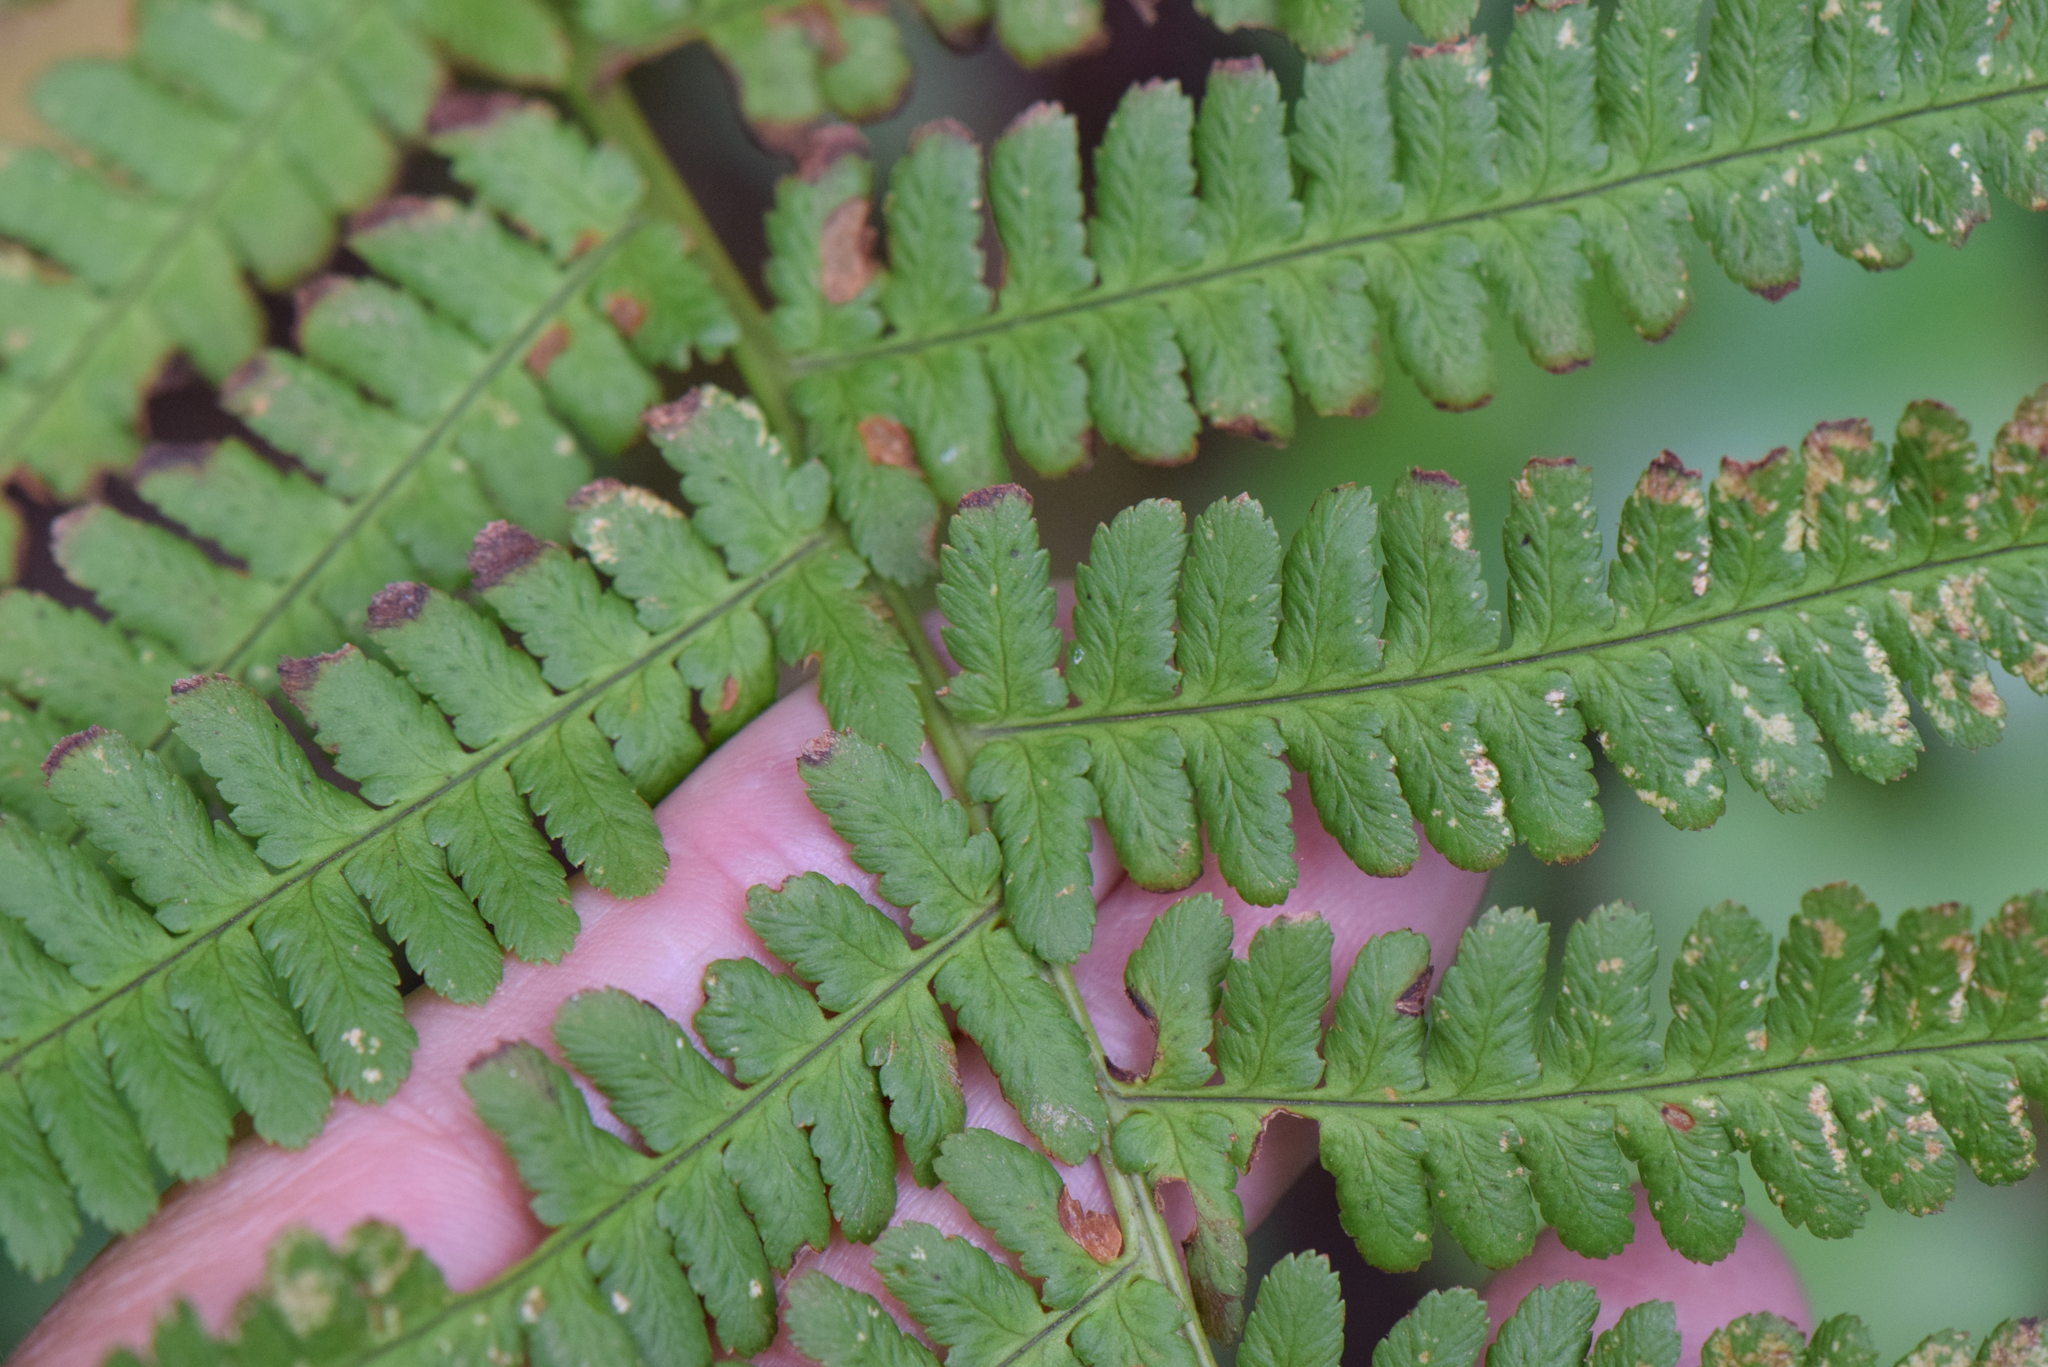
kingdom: Plantae
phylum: Tracheophyta
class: Polypodiopsida
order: Polypodiales
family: Dryopteridaceae
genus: Dryopteris
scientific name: Dryopteris filix-mas
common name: Male fern
